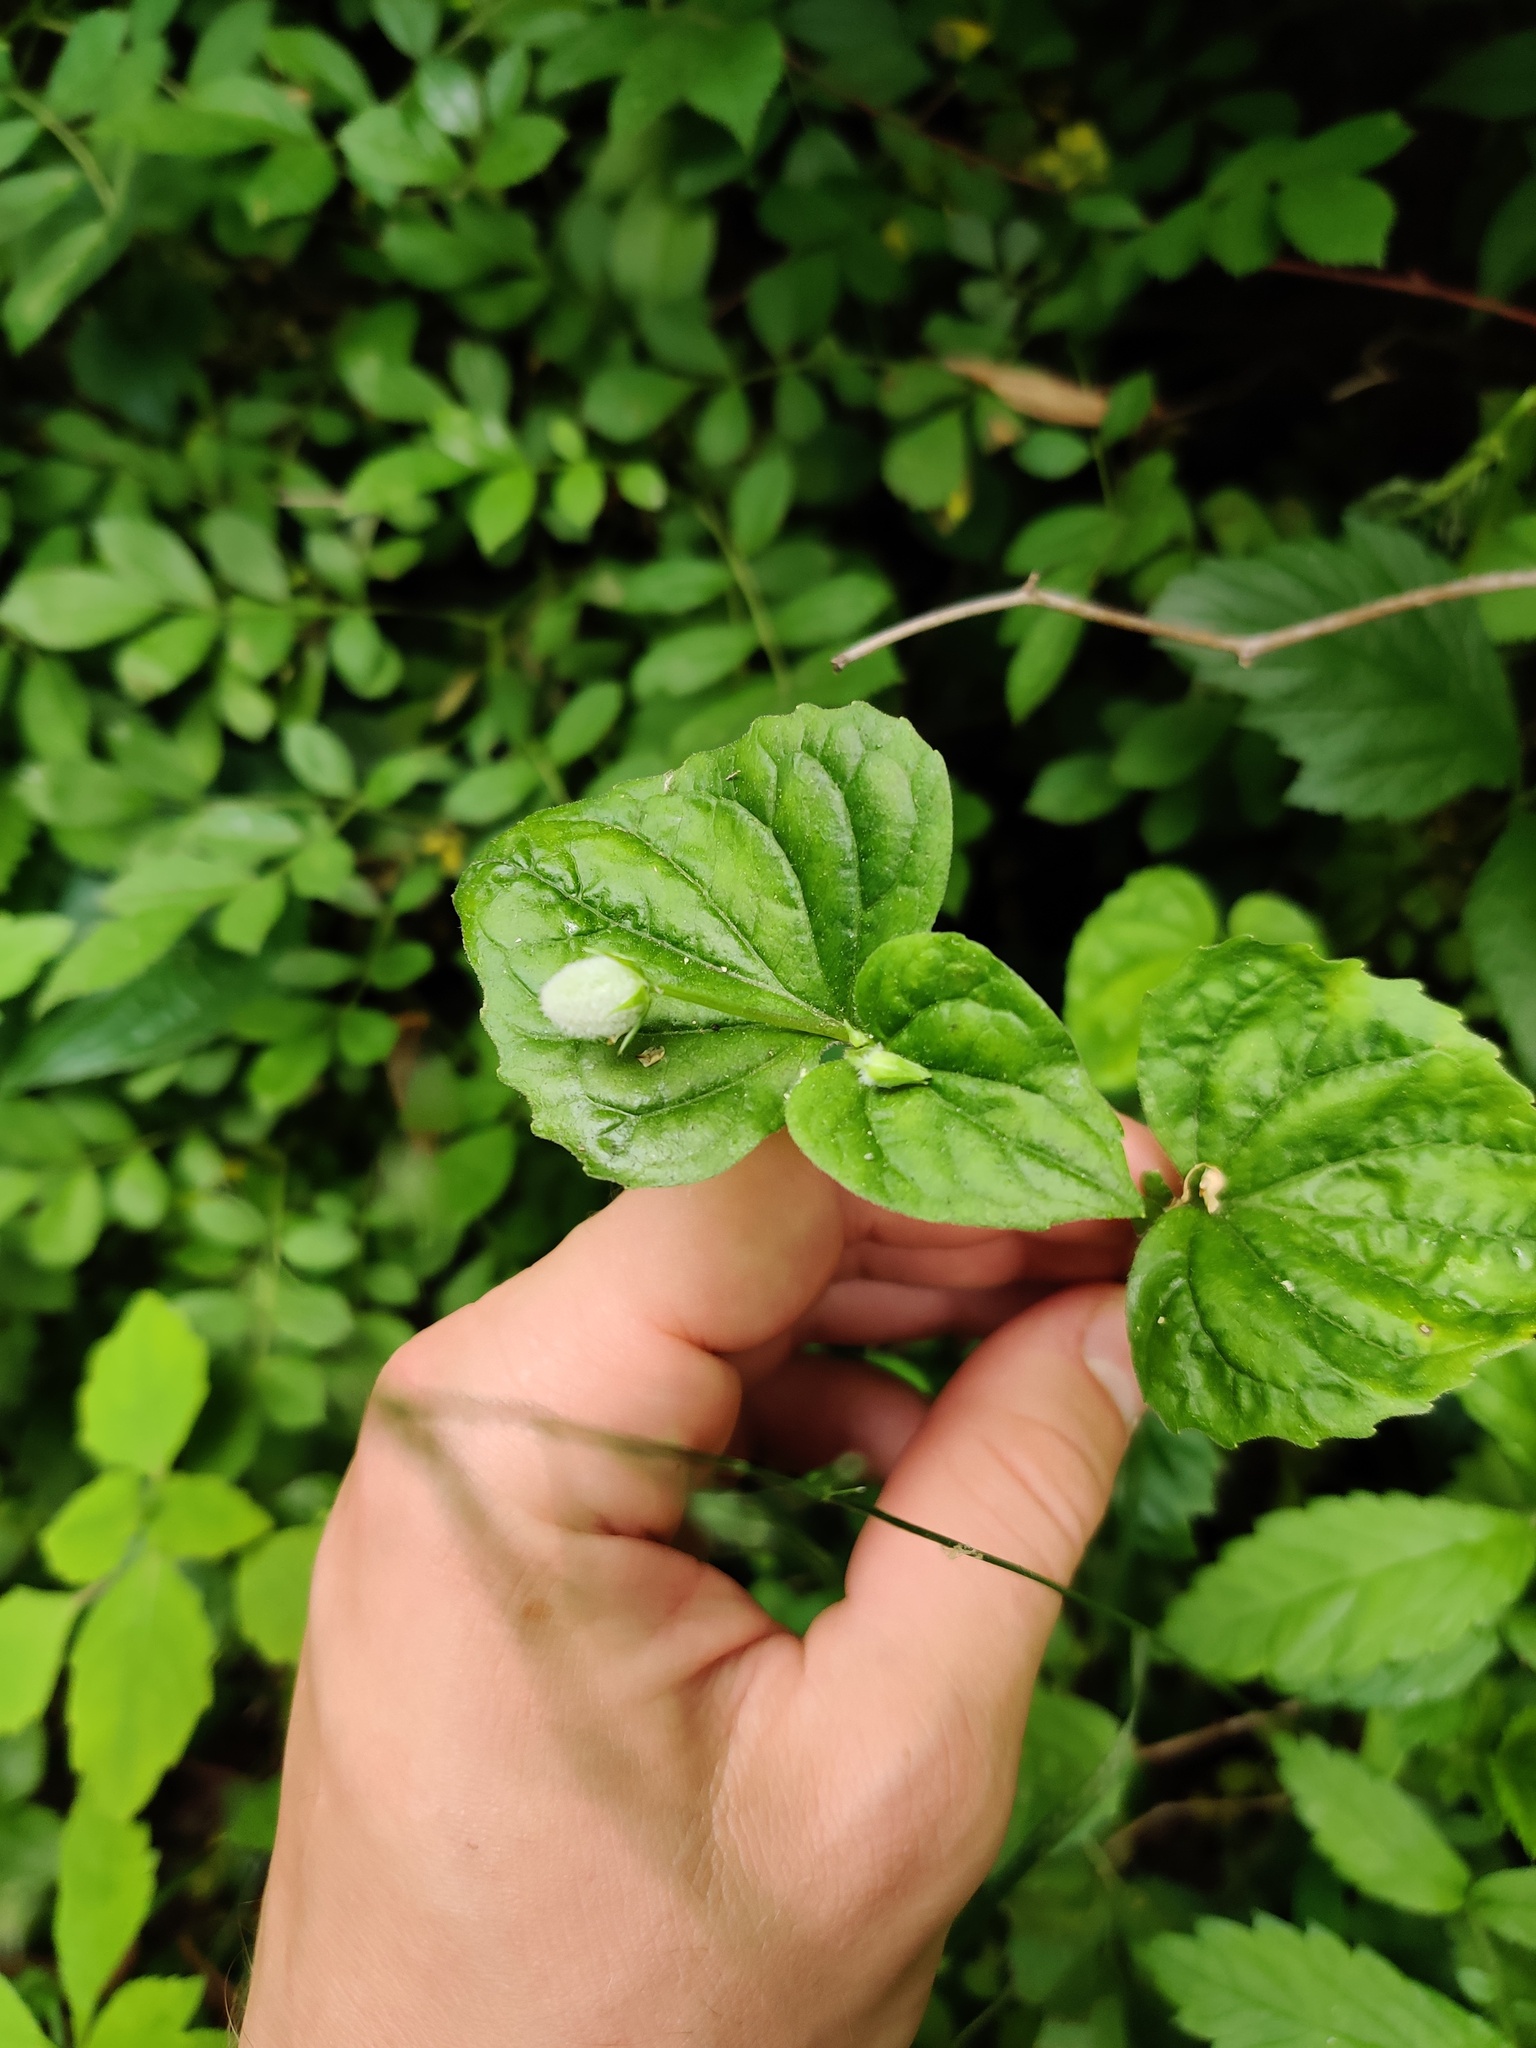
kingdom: Plantae
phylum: Tracheophyta
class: Magnoliopsida
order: Malpighiales
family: Violaceae
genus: Viola
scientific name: Viola eriocarpa
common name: Smooth yellow violet
